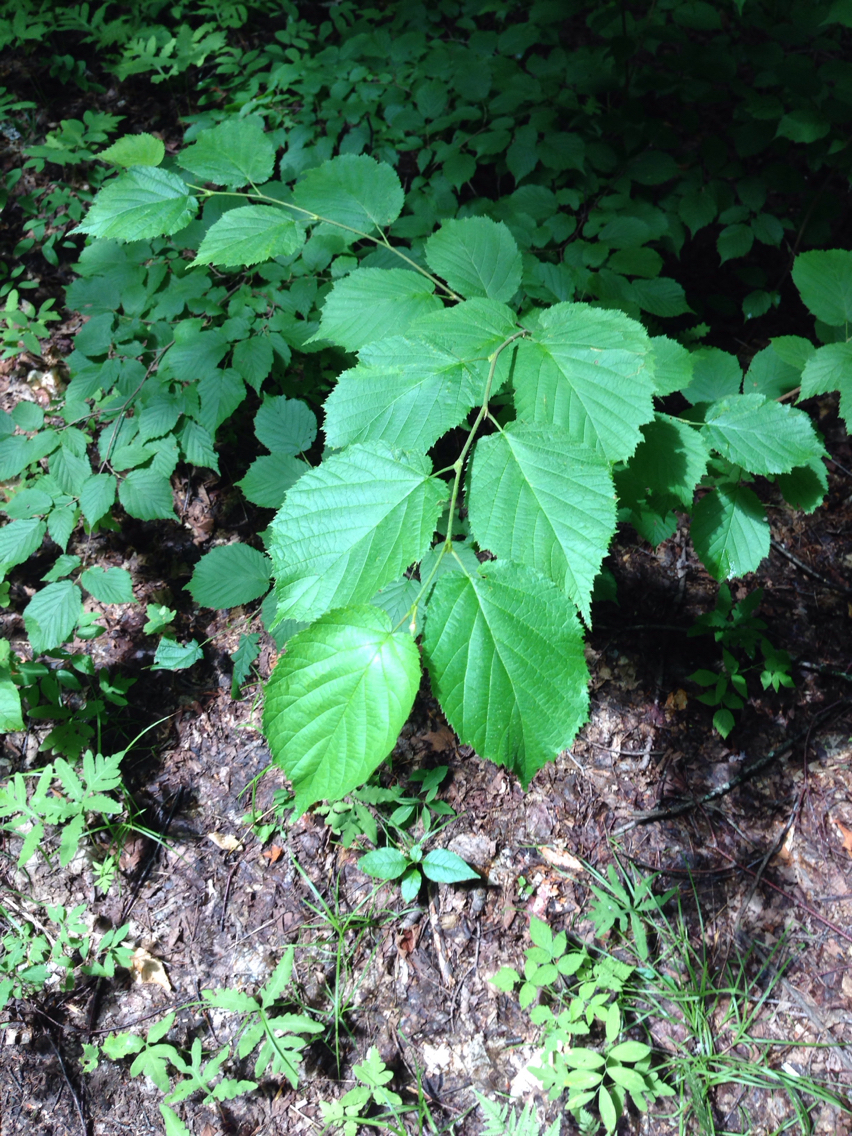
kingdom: Plantae
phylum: Tracheophyta
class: Magnoliopsida
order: Fagales
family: Betulaceae
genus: Corylus
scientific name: Corylus cornuta
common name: Beaked hazel
